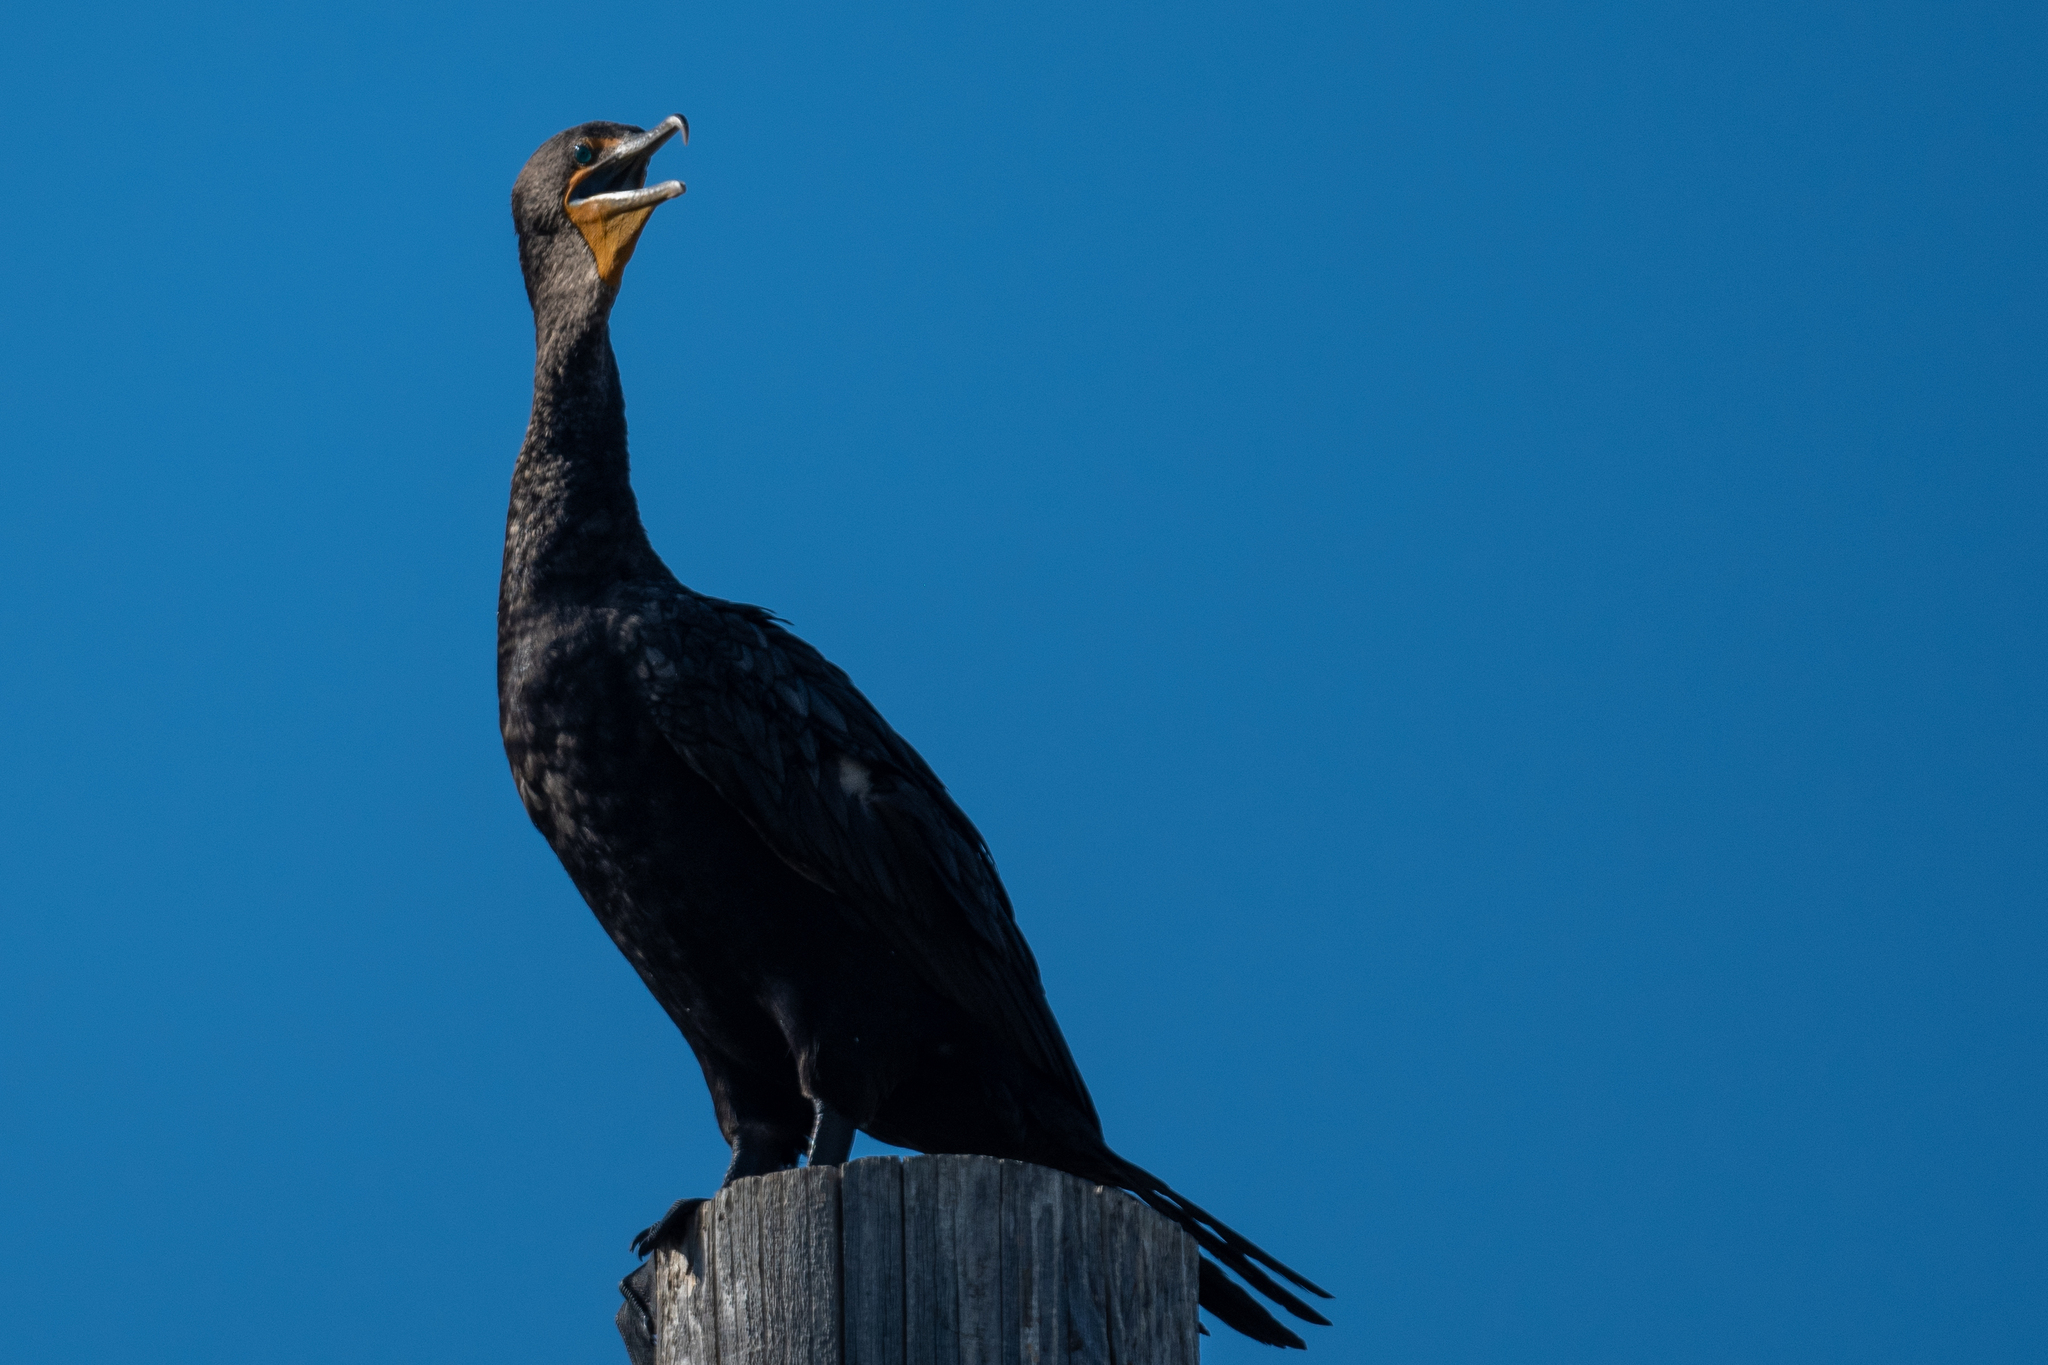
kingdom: Animalia
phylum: Chordata
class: Aves
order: Suliformes
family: Phalacrocoracidae
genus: Phalacrocorax
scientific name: Phalacrocorax auritus
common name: Double-crested cormorant
